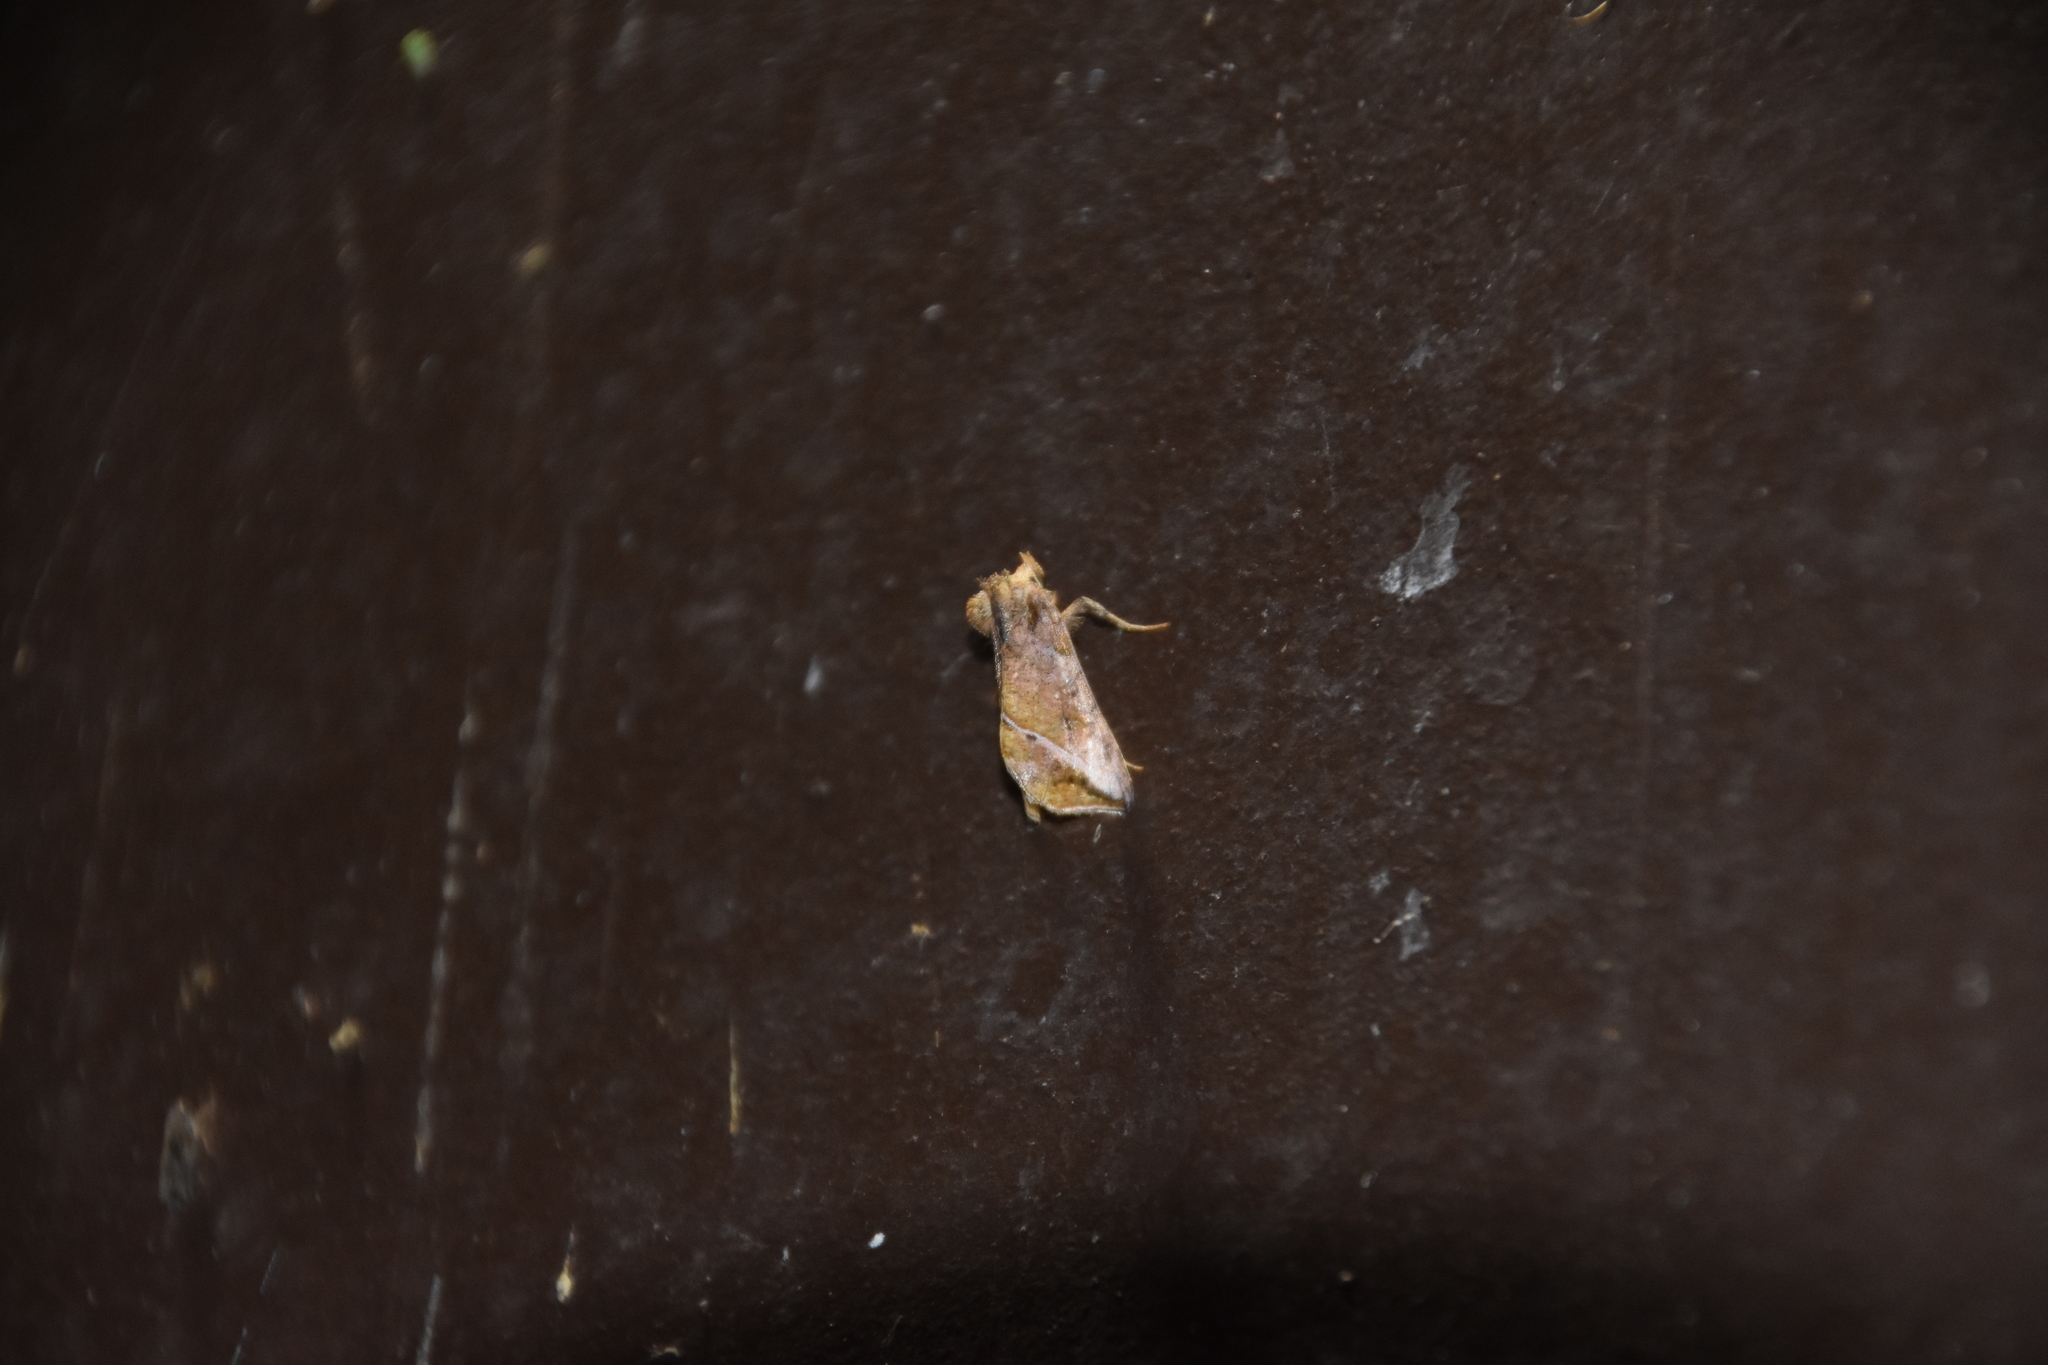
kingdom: Animalia
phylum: Arthropoda
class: Insecta
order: Lepidoptera
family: Noctuidae
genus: Pseudeva
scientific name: Pseudeva purpurigera
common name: Straight-lined looper moth
